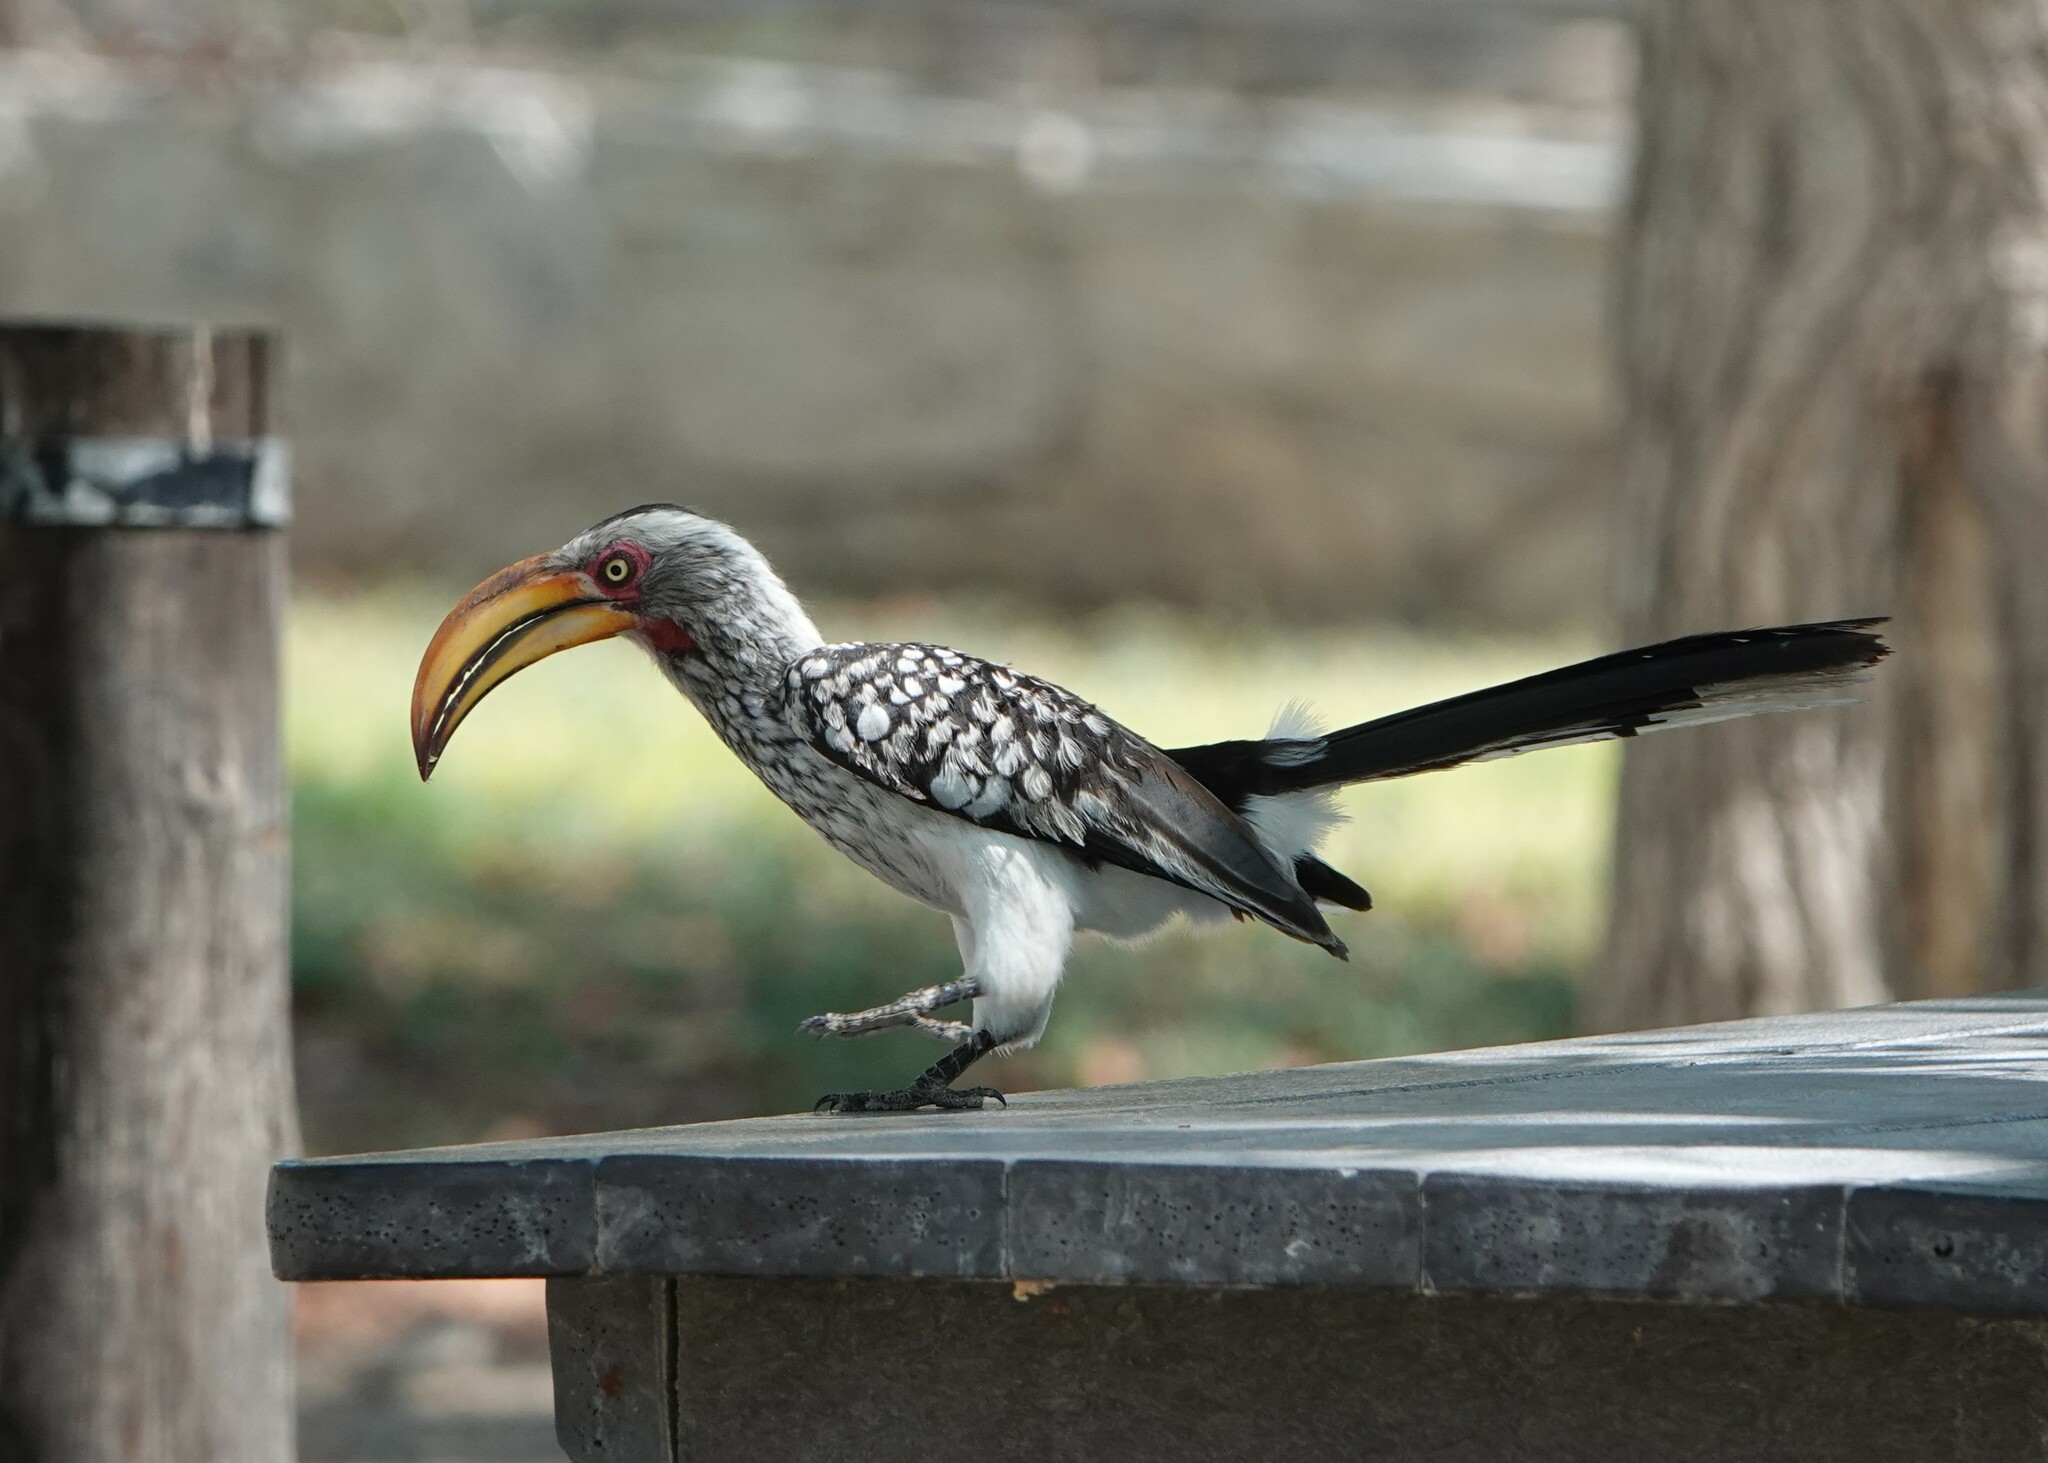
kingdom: Animalia
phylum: Chordata
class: Aves
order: Bucerotiformes
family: Bucerotidae
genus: Tockus
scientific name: Tockus leucomelas
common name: Southern yellow-billed hornbill
